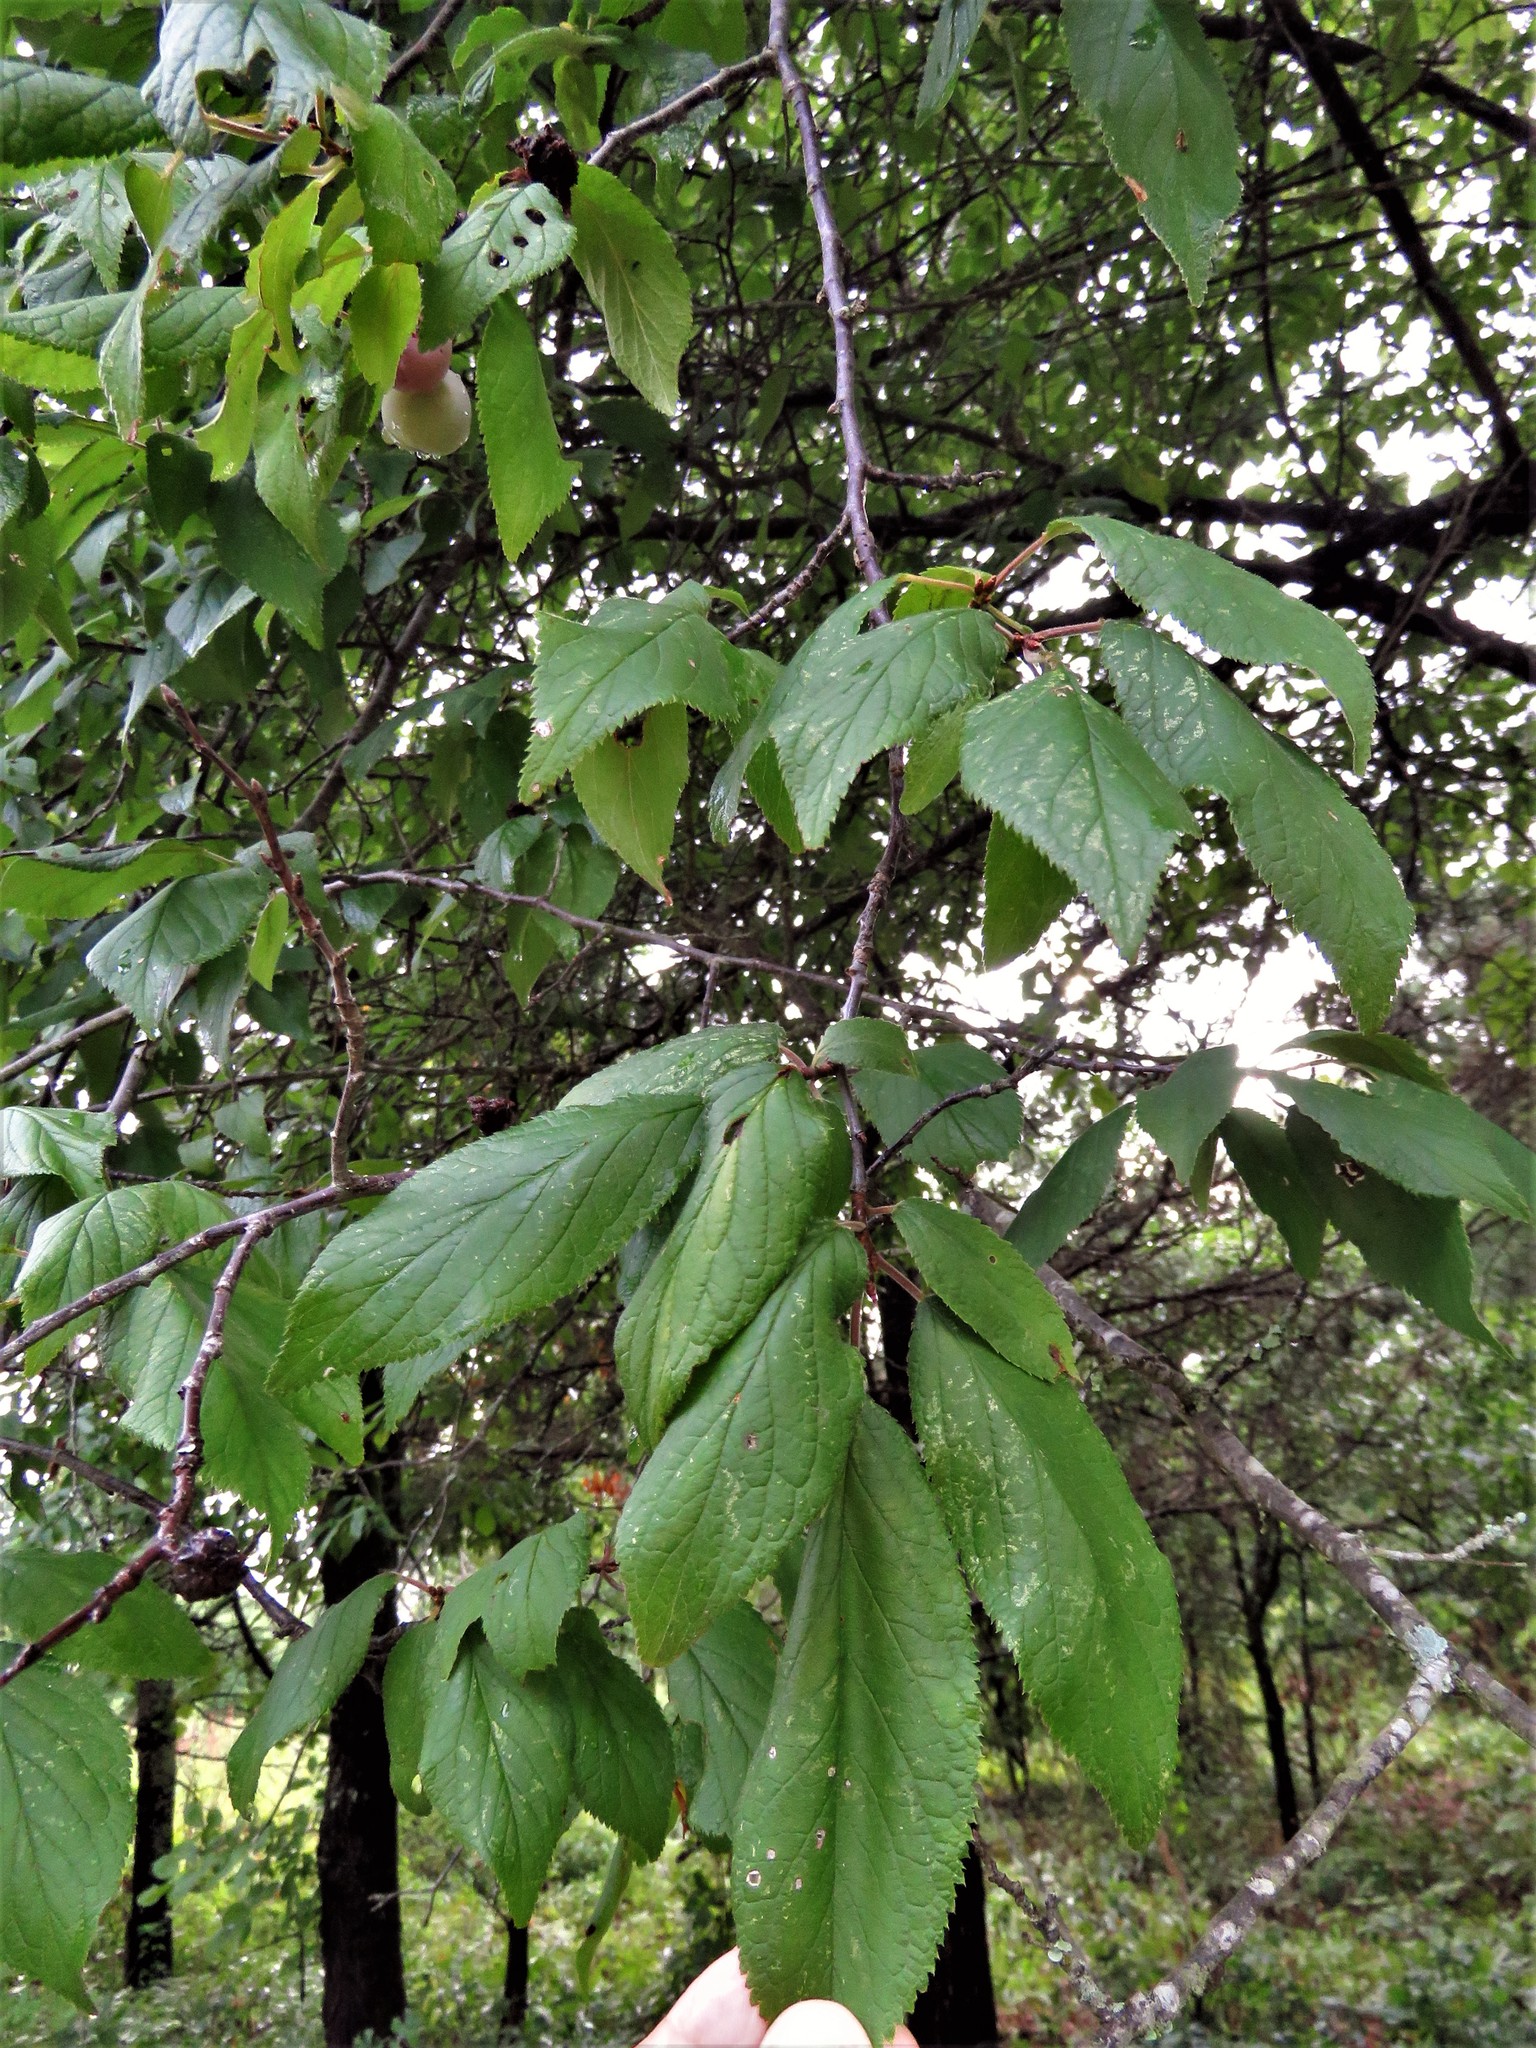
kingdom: Plantae
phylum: Tracheophyta
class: Magnoliopsida
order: Rosales
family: Rosaceae
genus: Prunus
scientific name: Prunus mexicana
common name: Mexican plum
